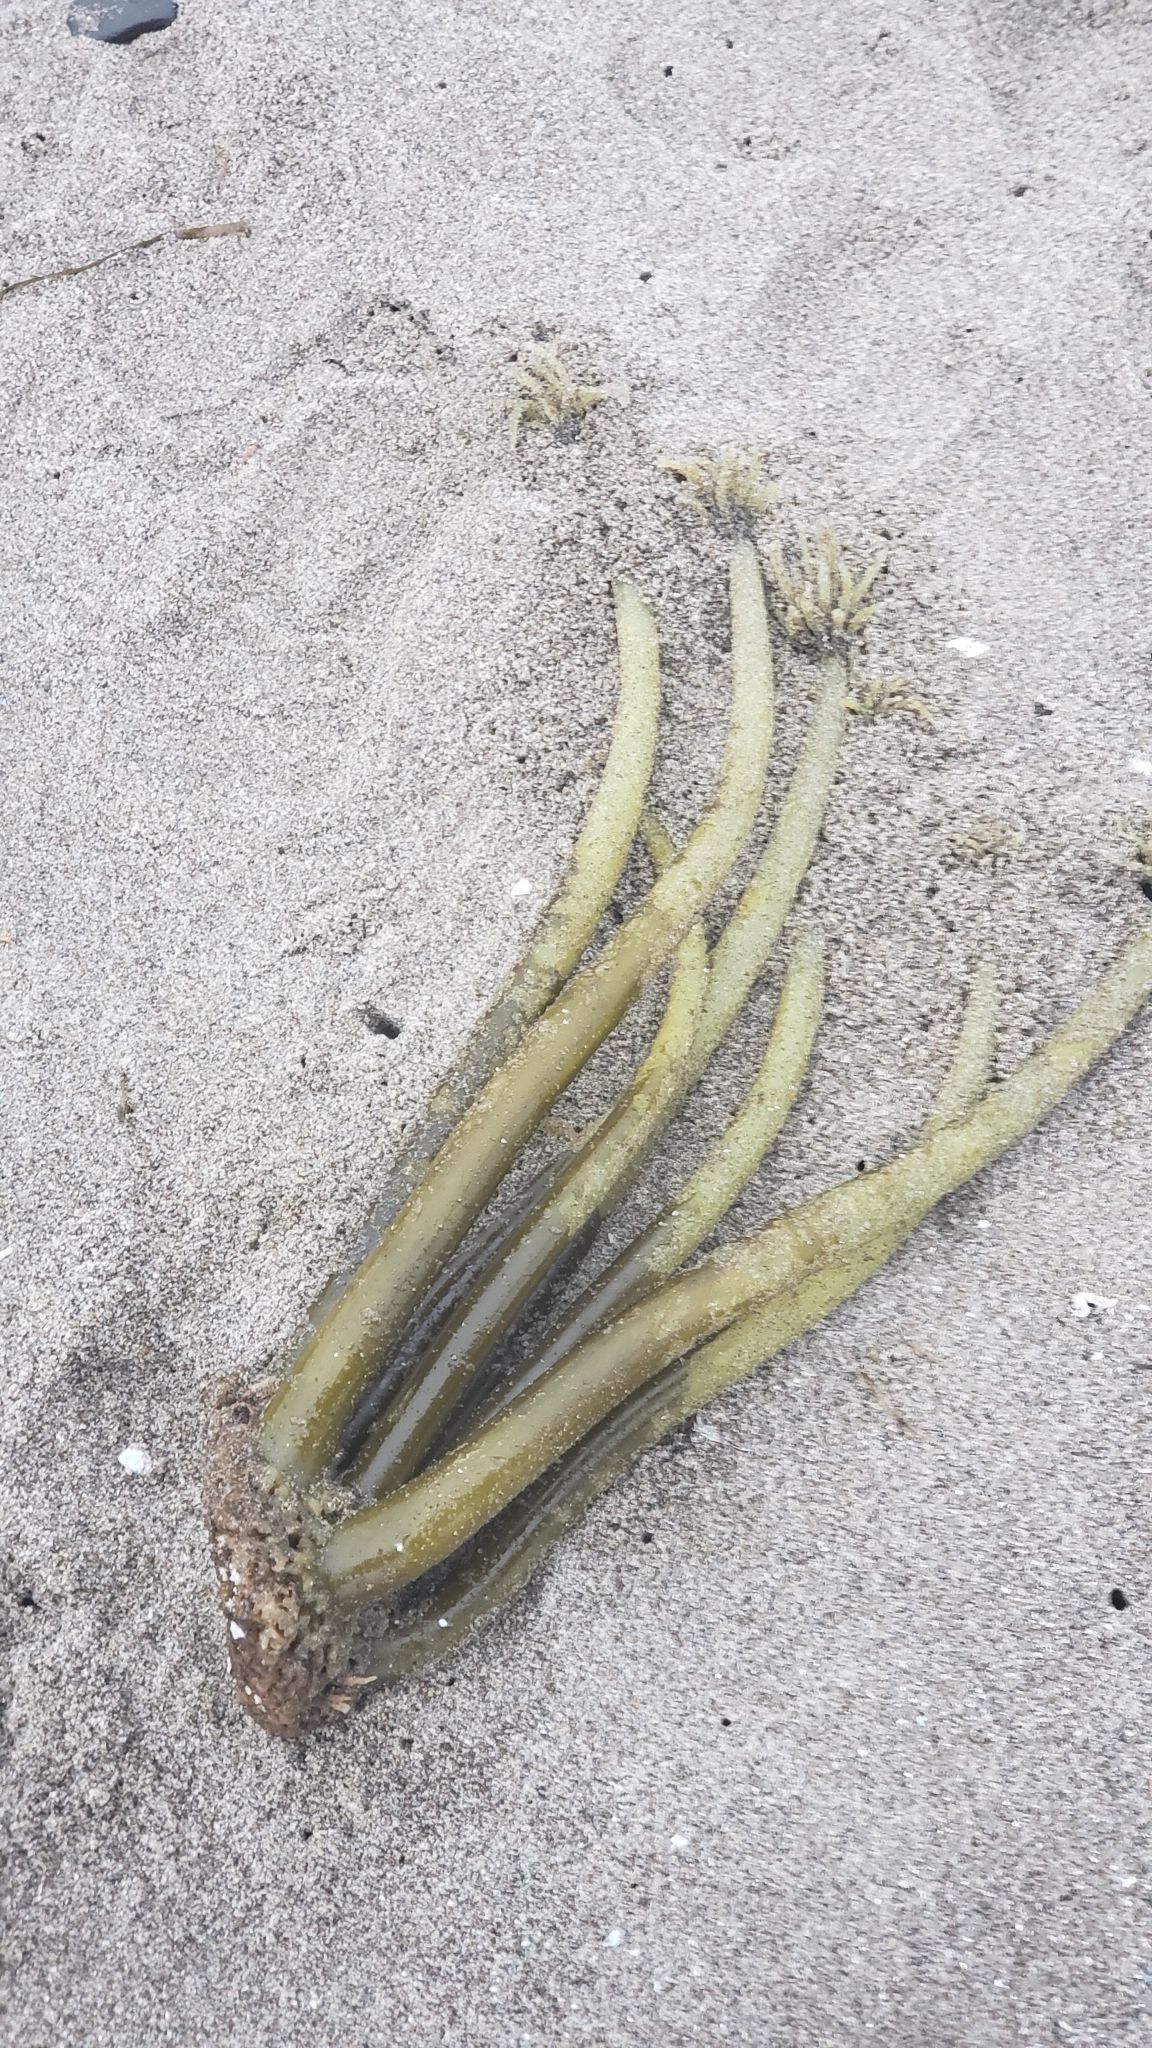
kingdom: Chromista
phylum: Ochrophyta
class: Phaeophyceae
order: Laminariales
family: Laminariaceae
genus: Postelsia
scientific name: Postelsia palmiformis
